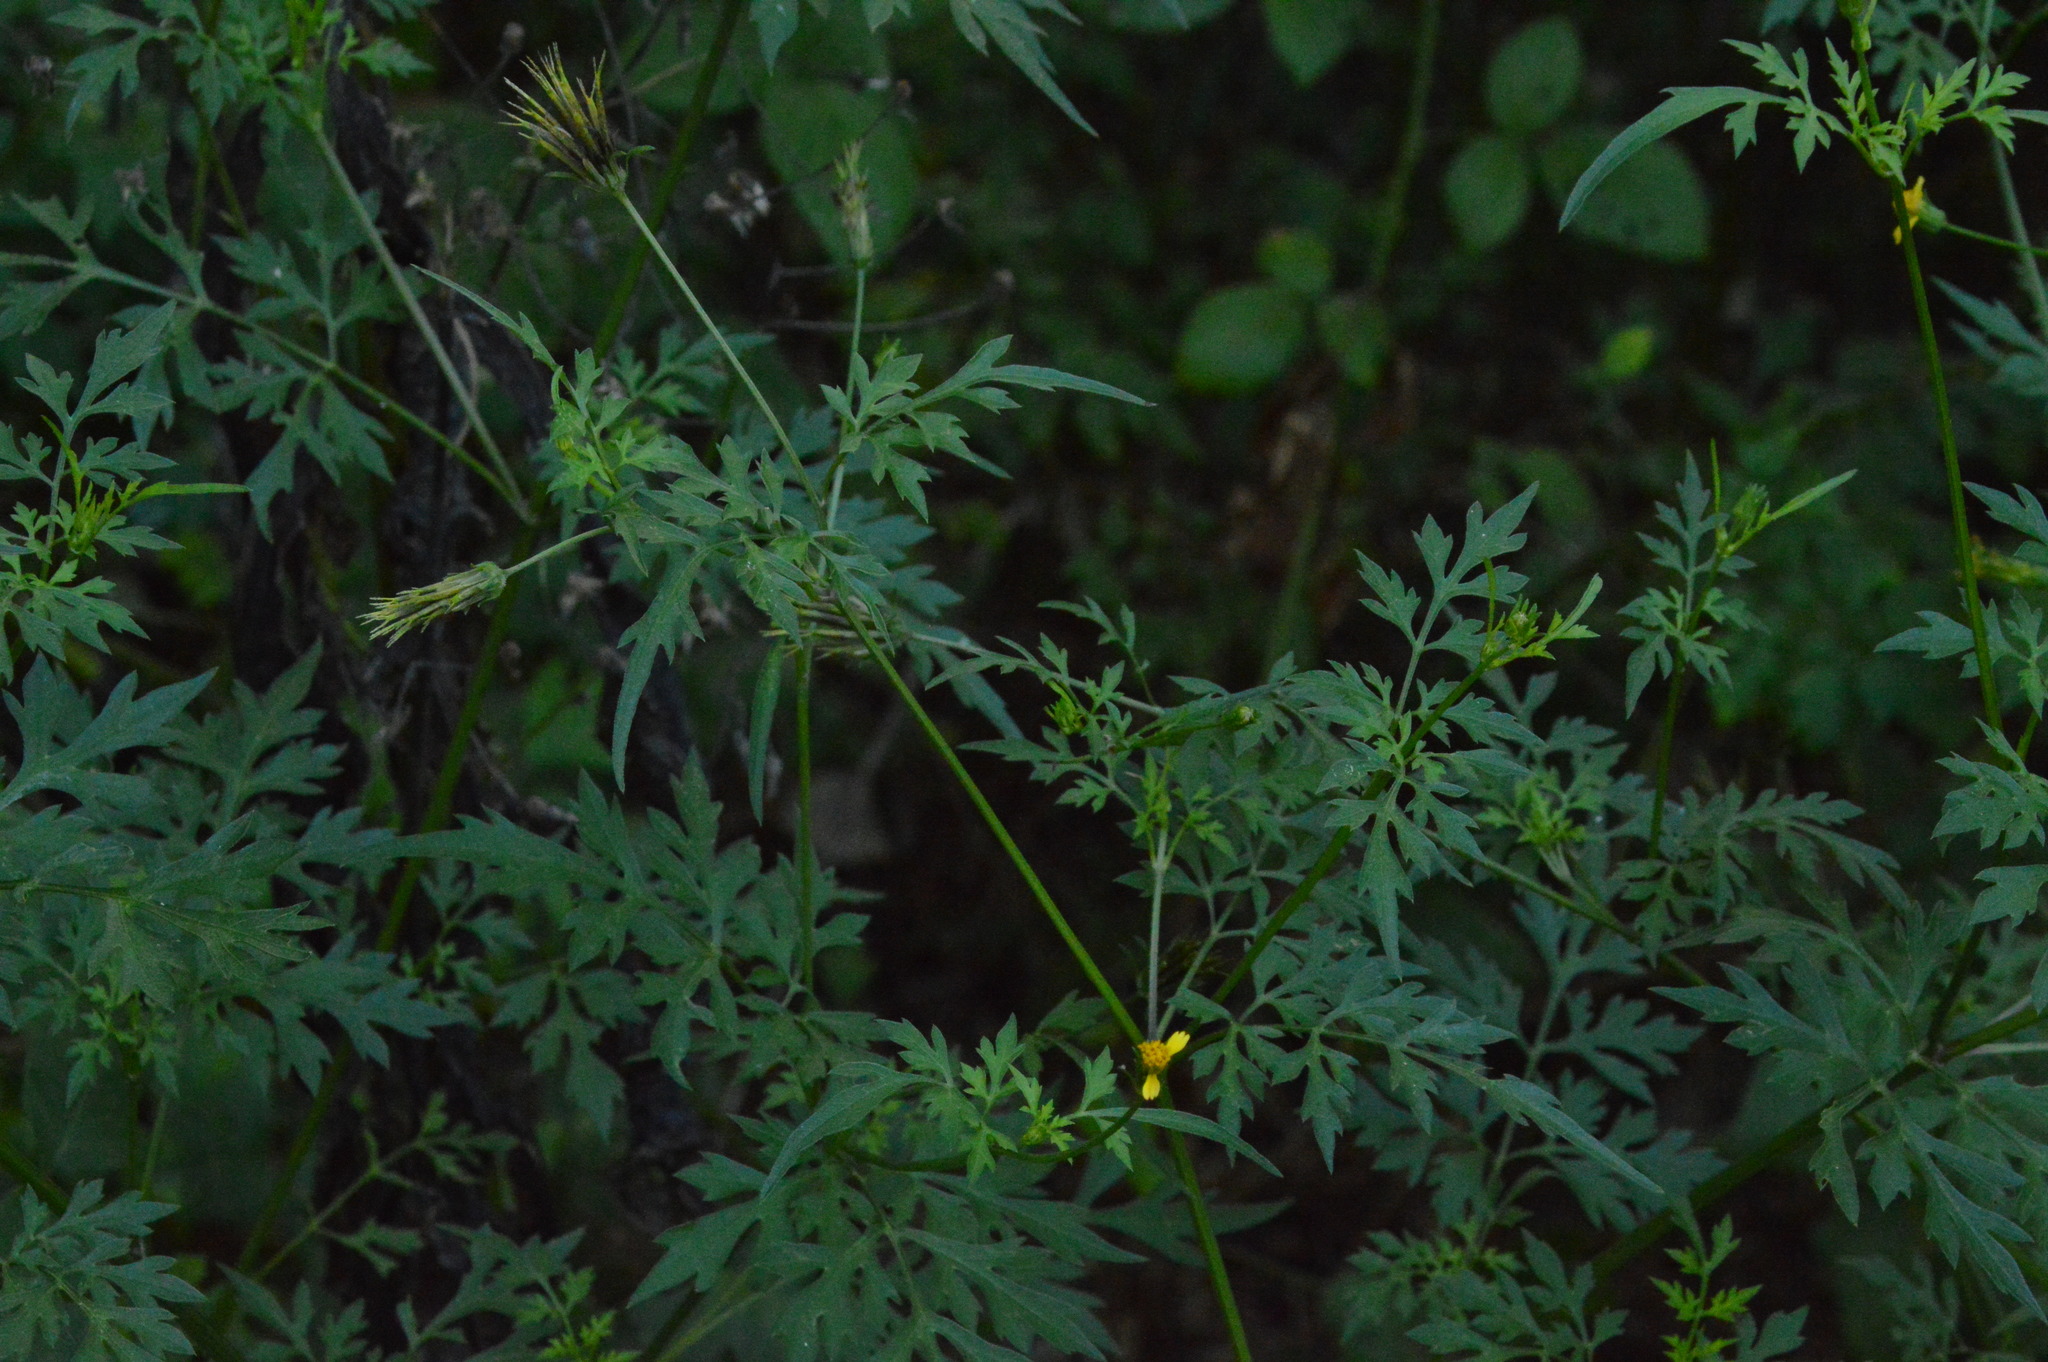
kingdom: Plantae
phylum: Tracheophyta
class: Magnoliopsida
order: Asterales
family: Asteraceae
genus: Bidens
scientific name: Bidens bipinnata
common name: Spanish-needles
